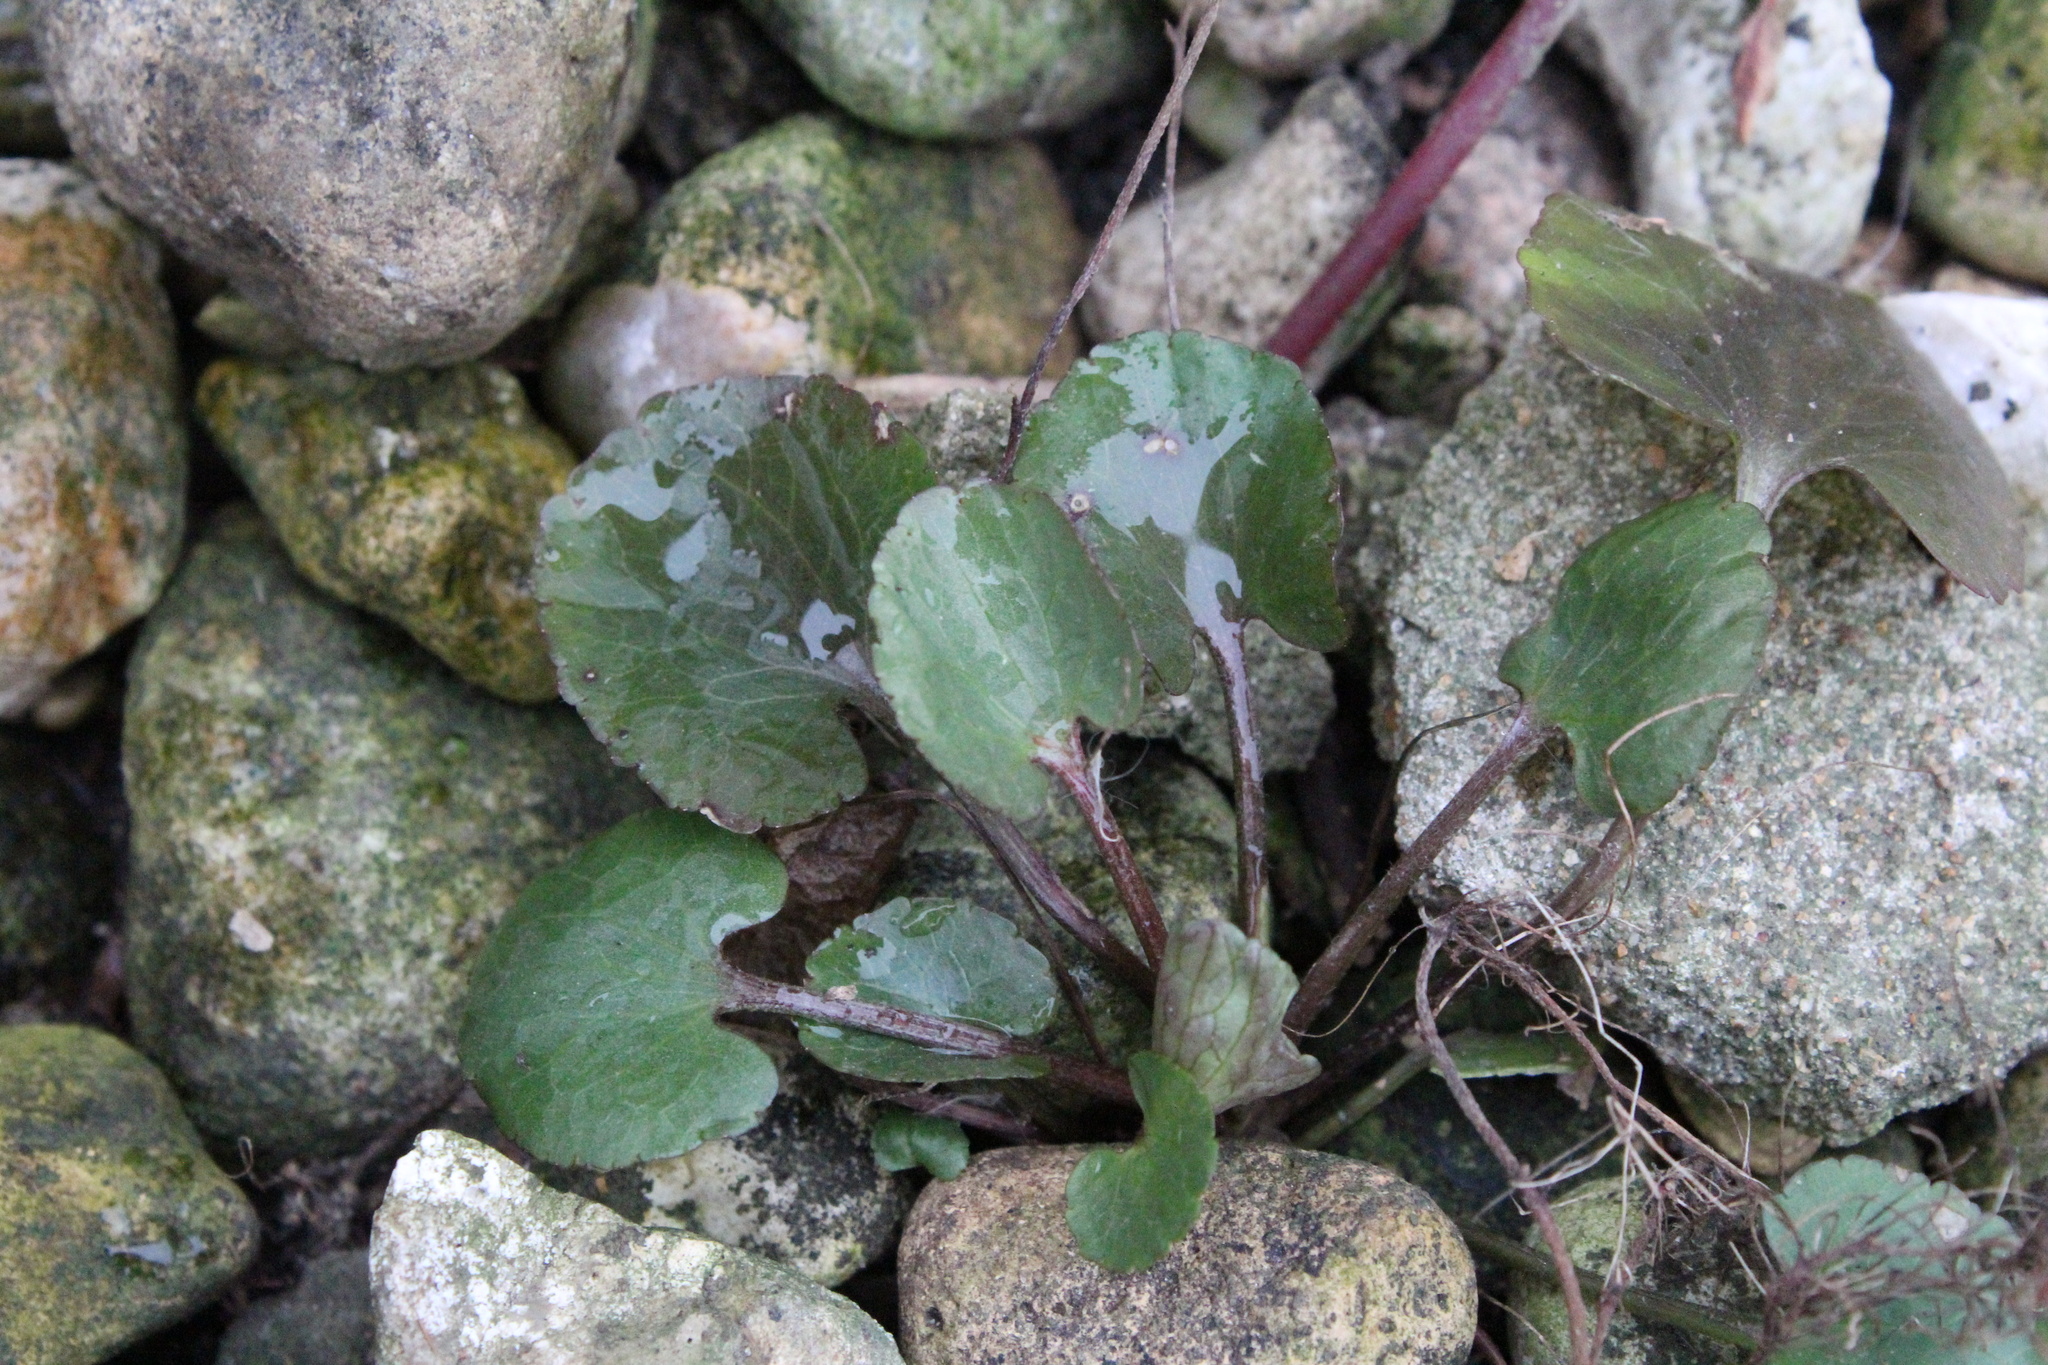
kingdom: Plantae
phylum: Tracheophyta
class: Magnoliopsida
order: Ranunculales
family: Ranunculaceae
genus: Ranunculus
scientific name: Ranunculus abortivus
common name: Early wood buttercup
